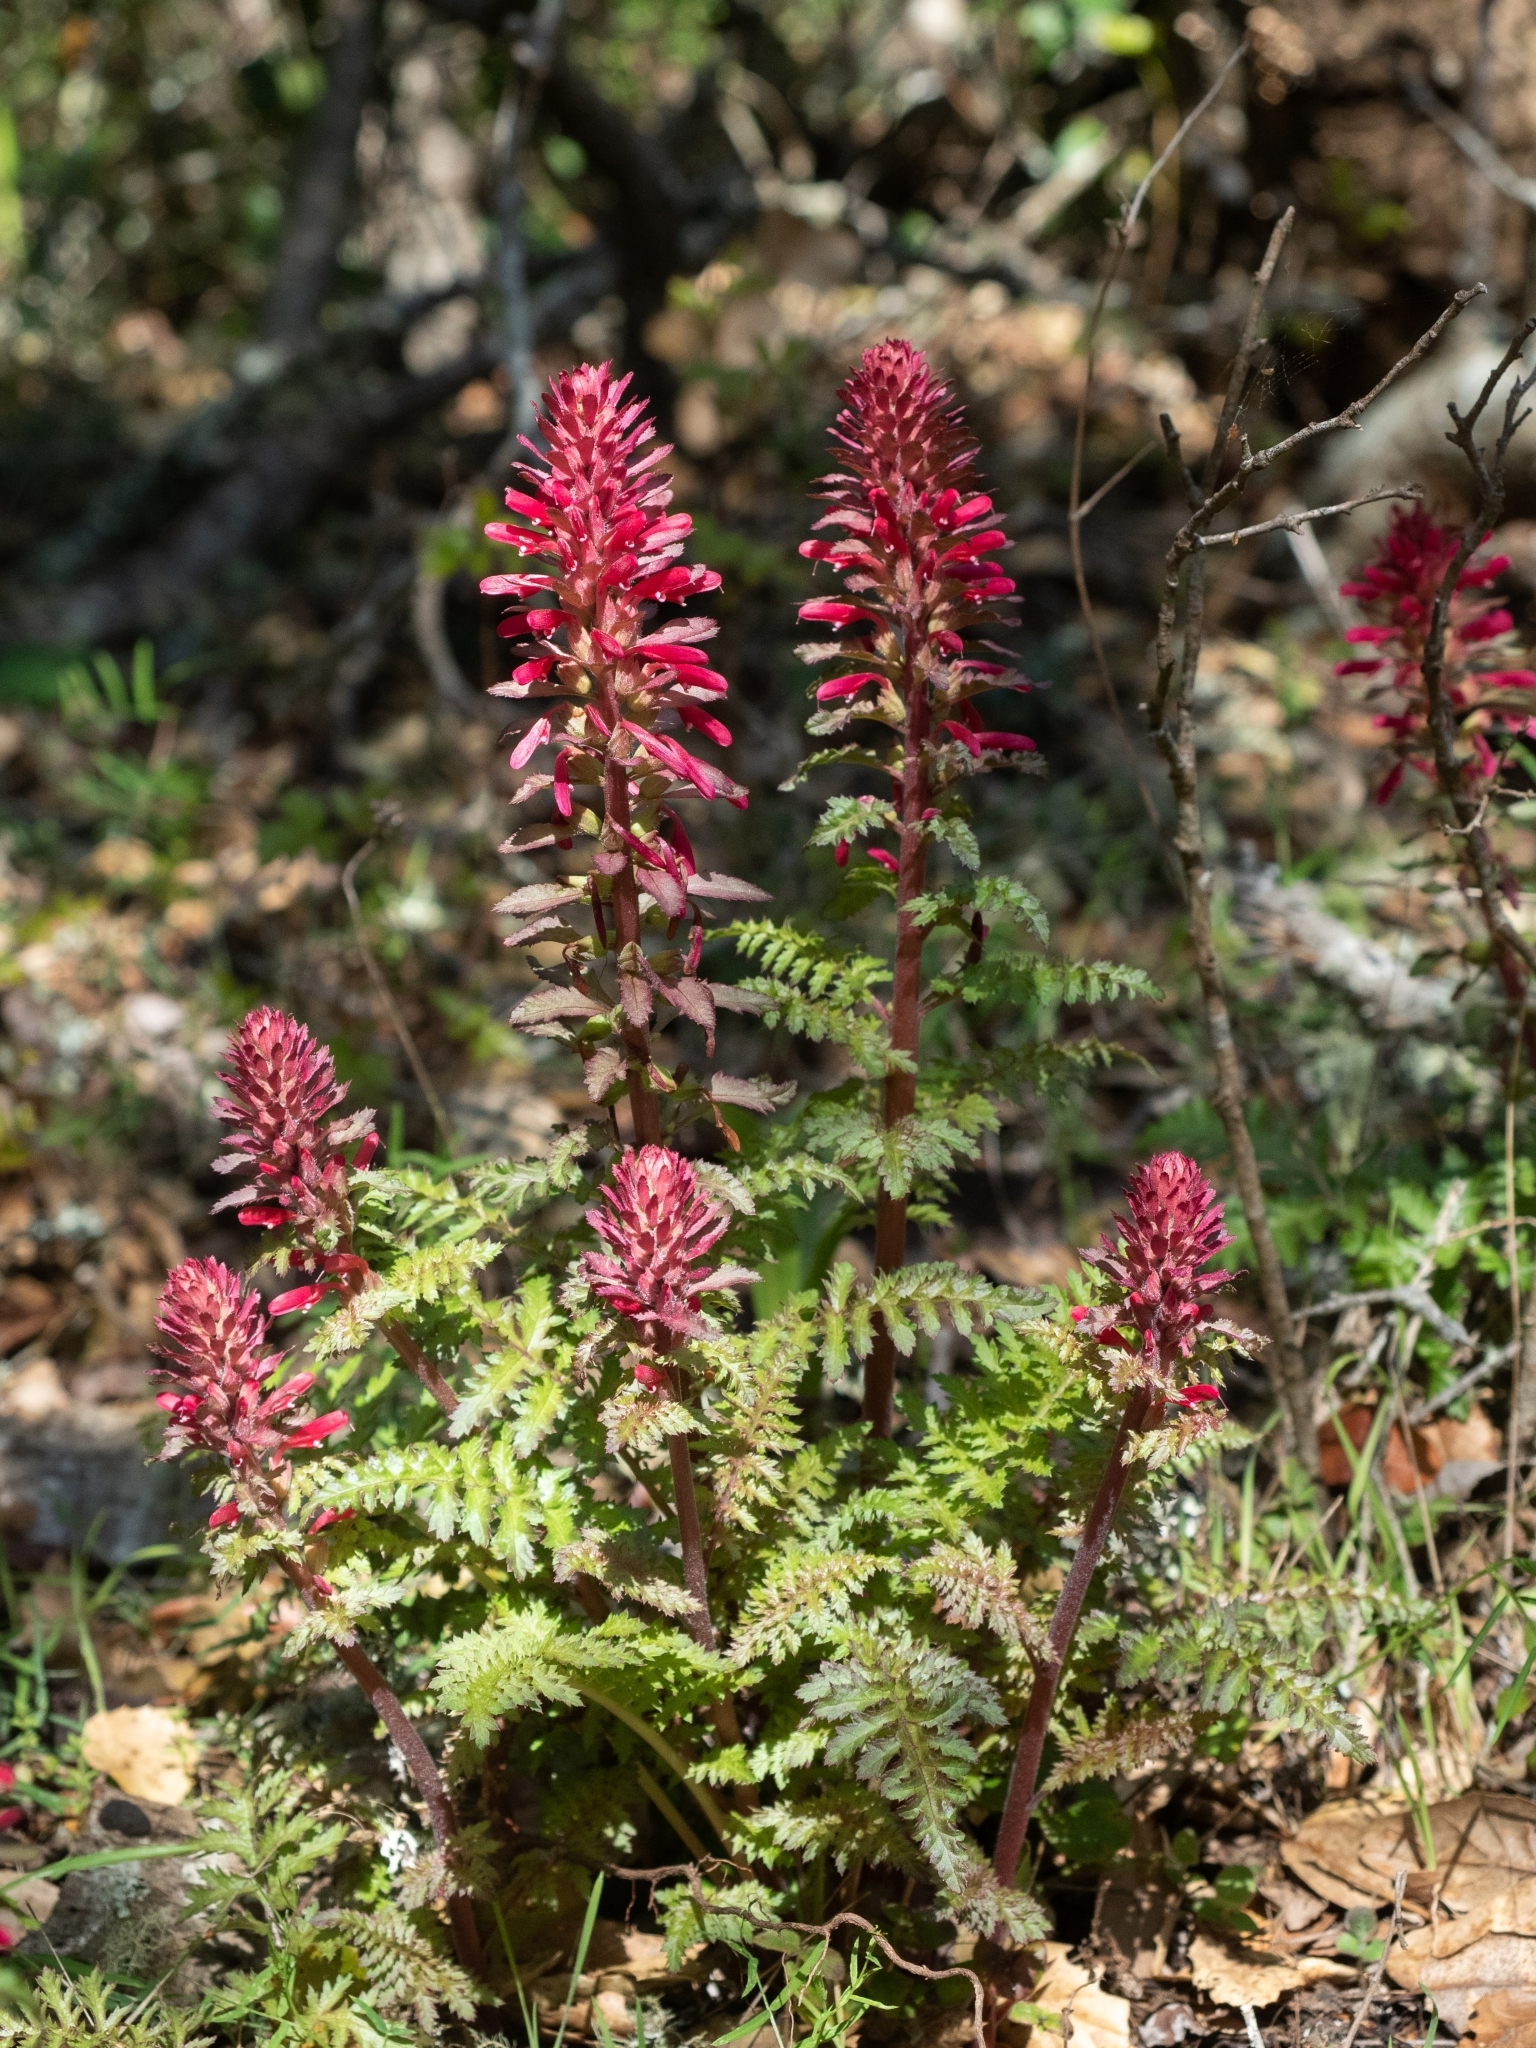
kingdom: Plantae
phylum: Tracheophyta
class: Magnoliopsida
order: Lamiales
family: Orobanchaceae
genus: Pedicularis
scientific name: Pedicularis densiflora
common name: Indian warrior
